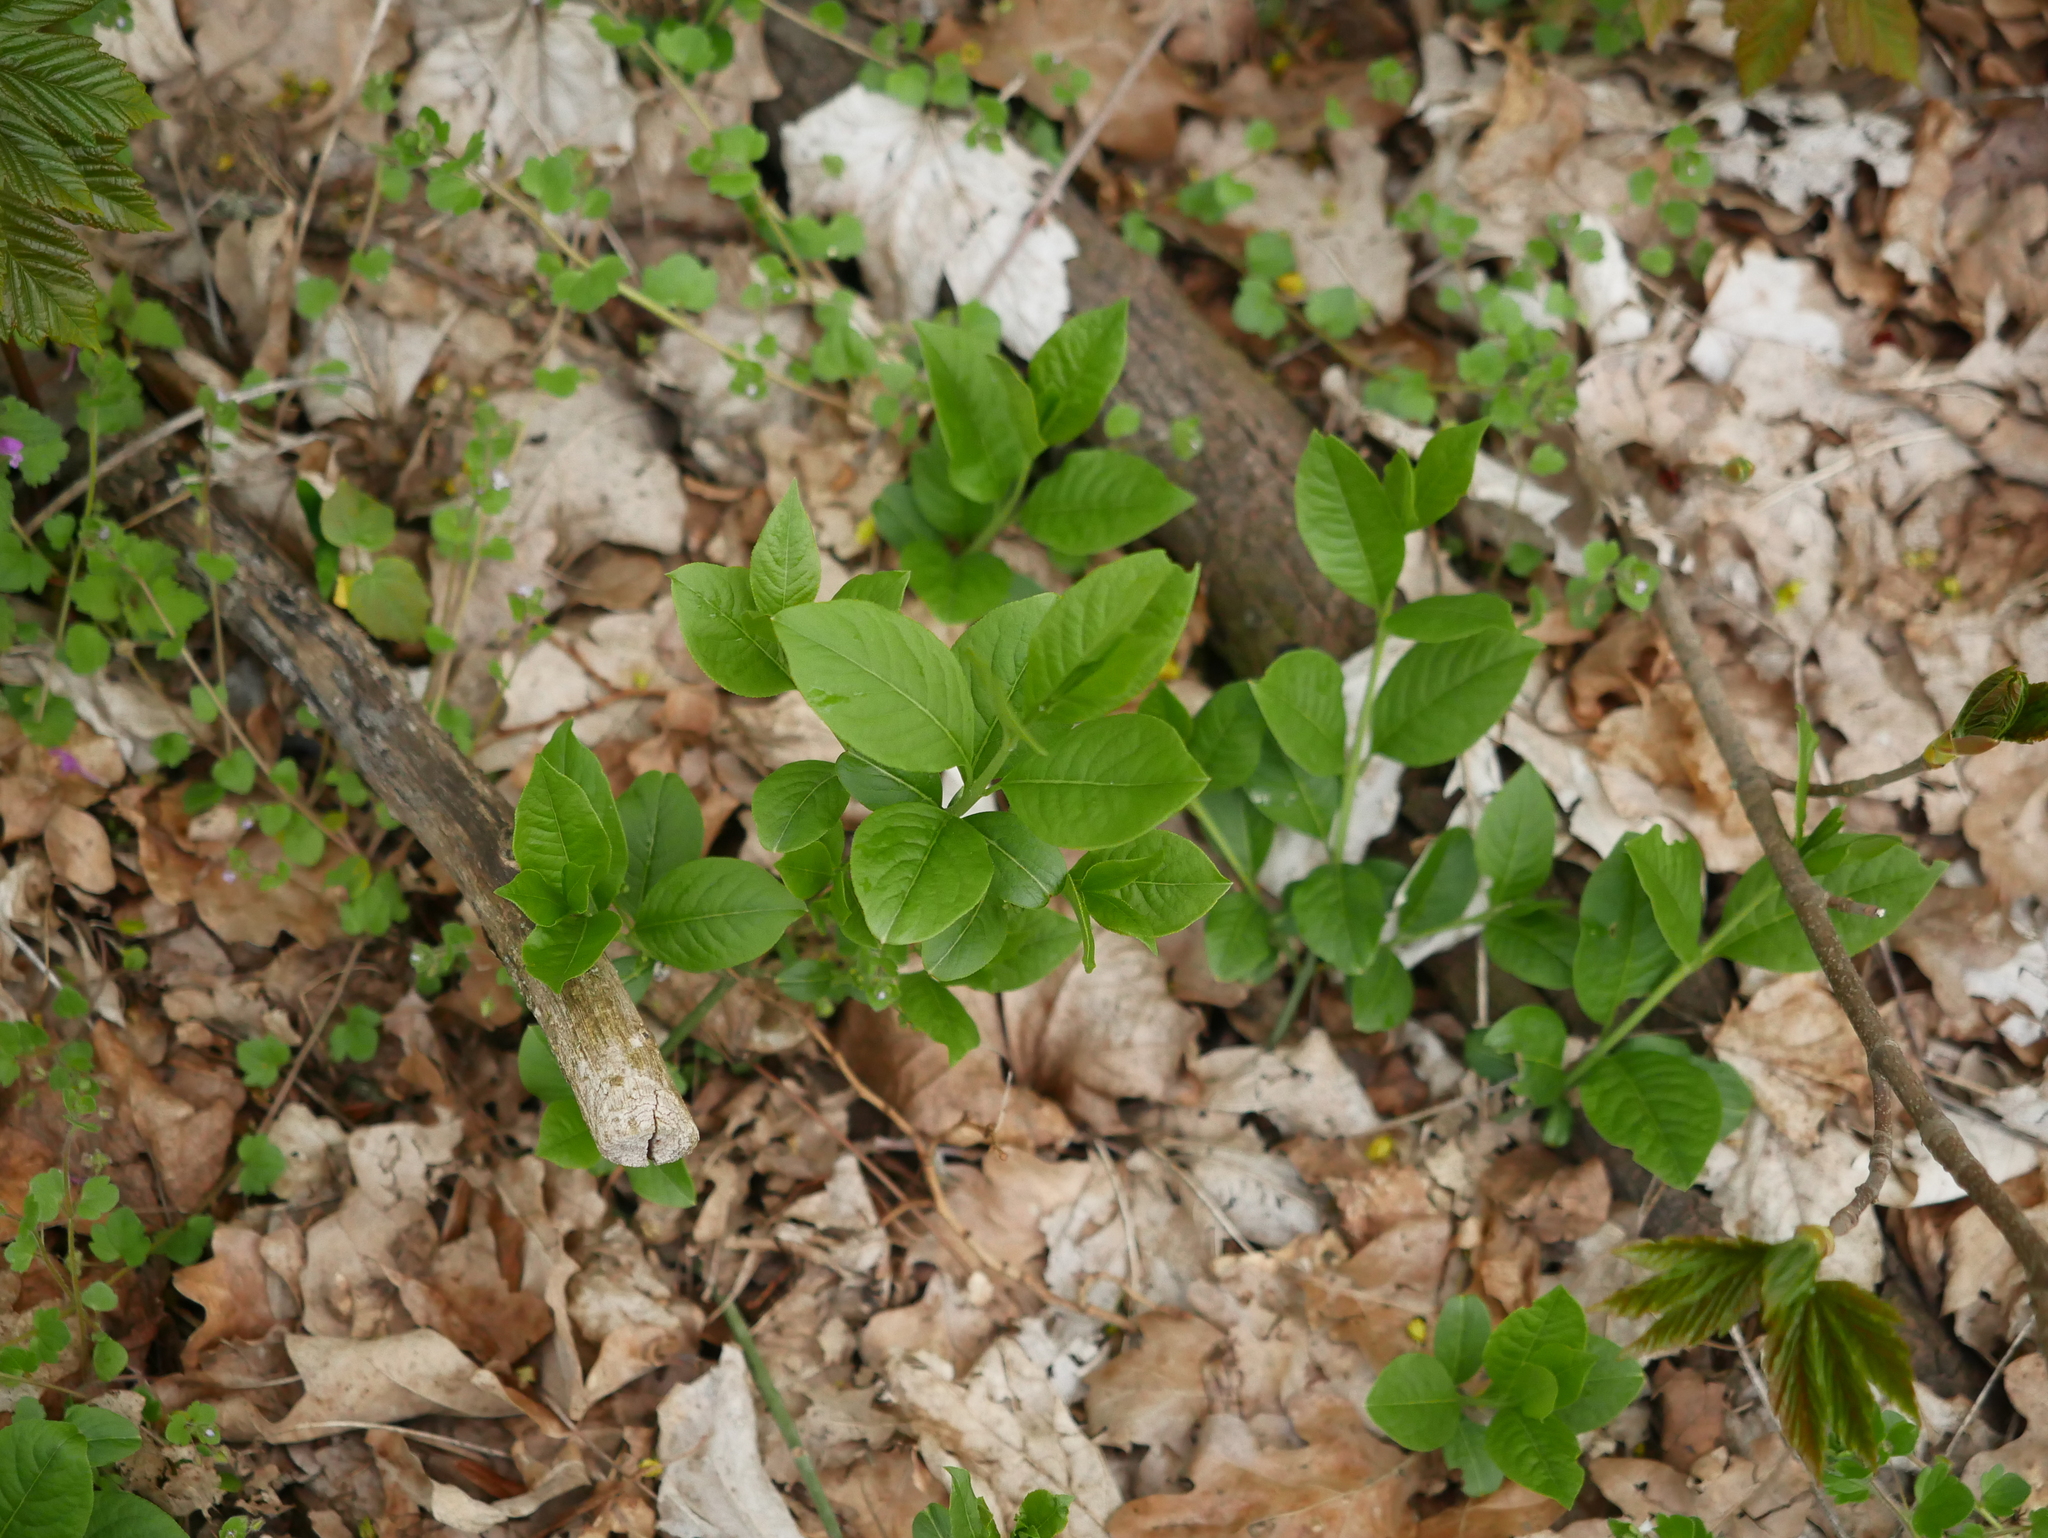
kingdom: Plantae
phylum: Tracheophyta
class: Magnoliopsida
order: Celastrales
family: Celastraceae
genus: Euonymus
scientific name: Euonymus europaeus
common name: Spindle
